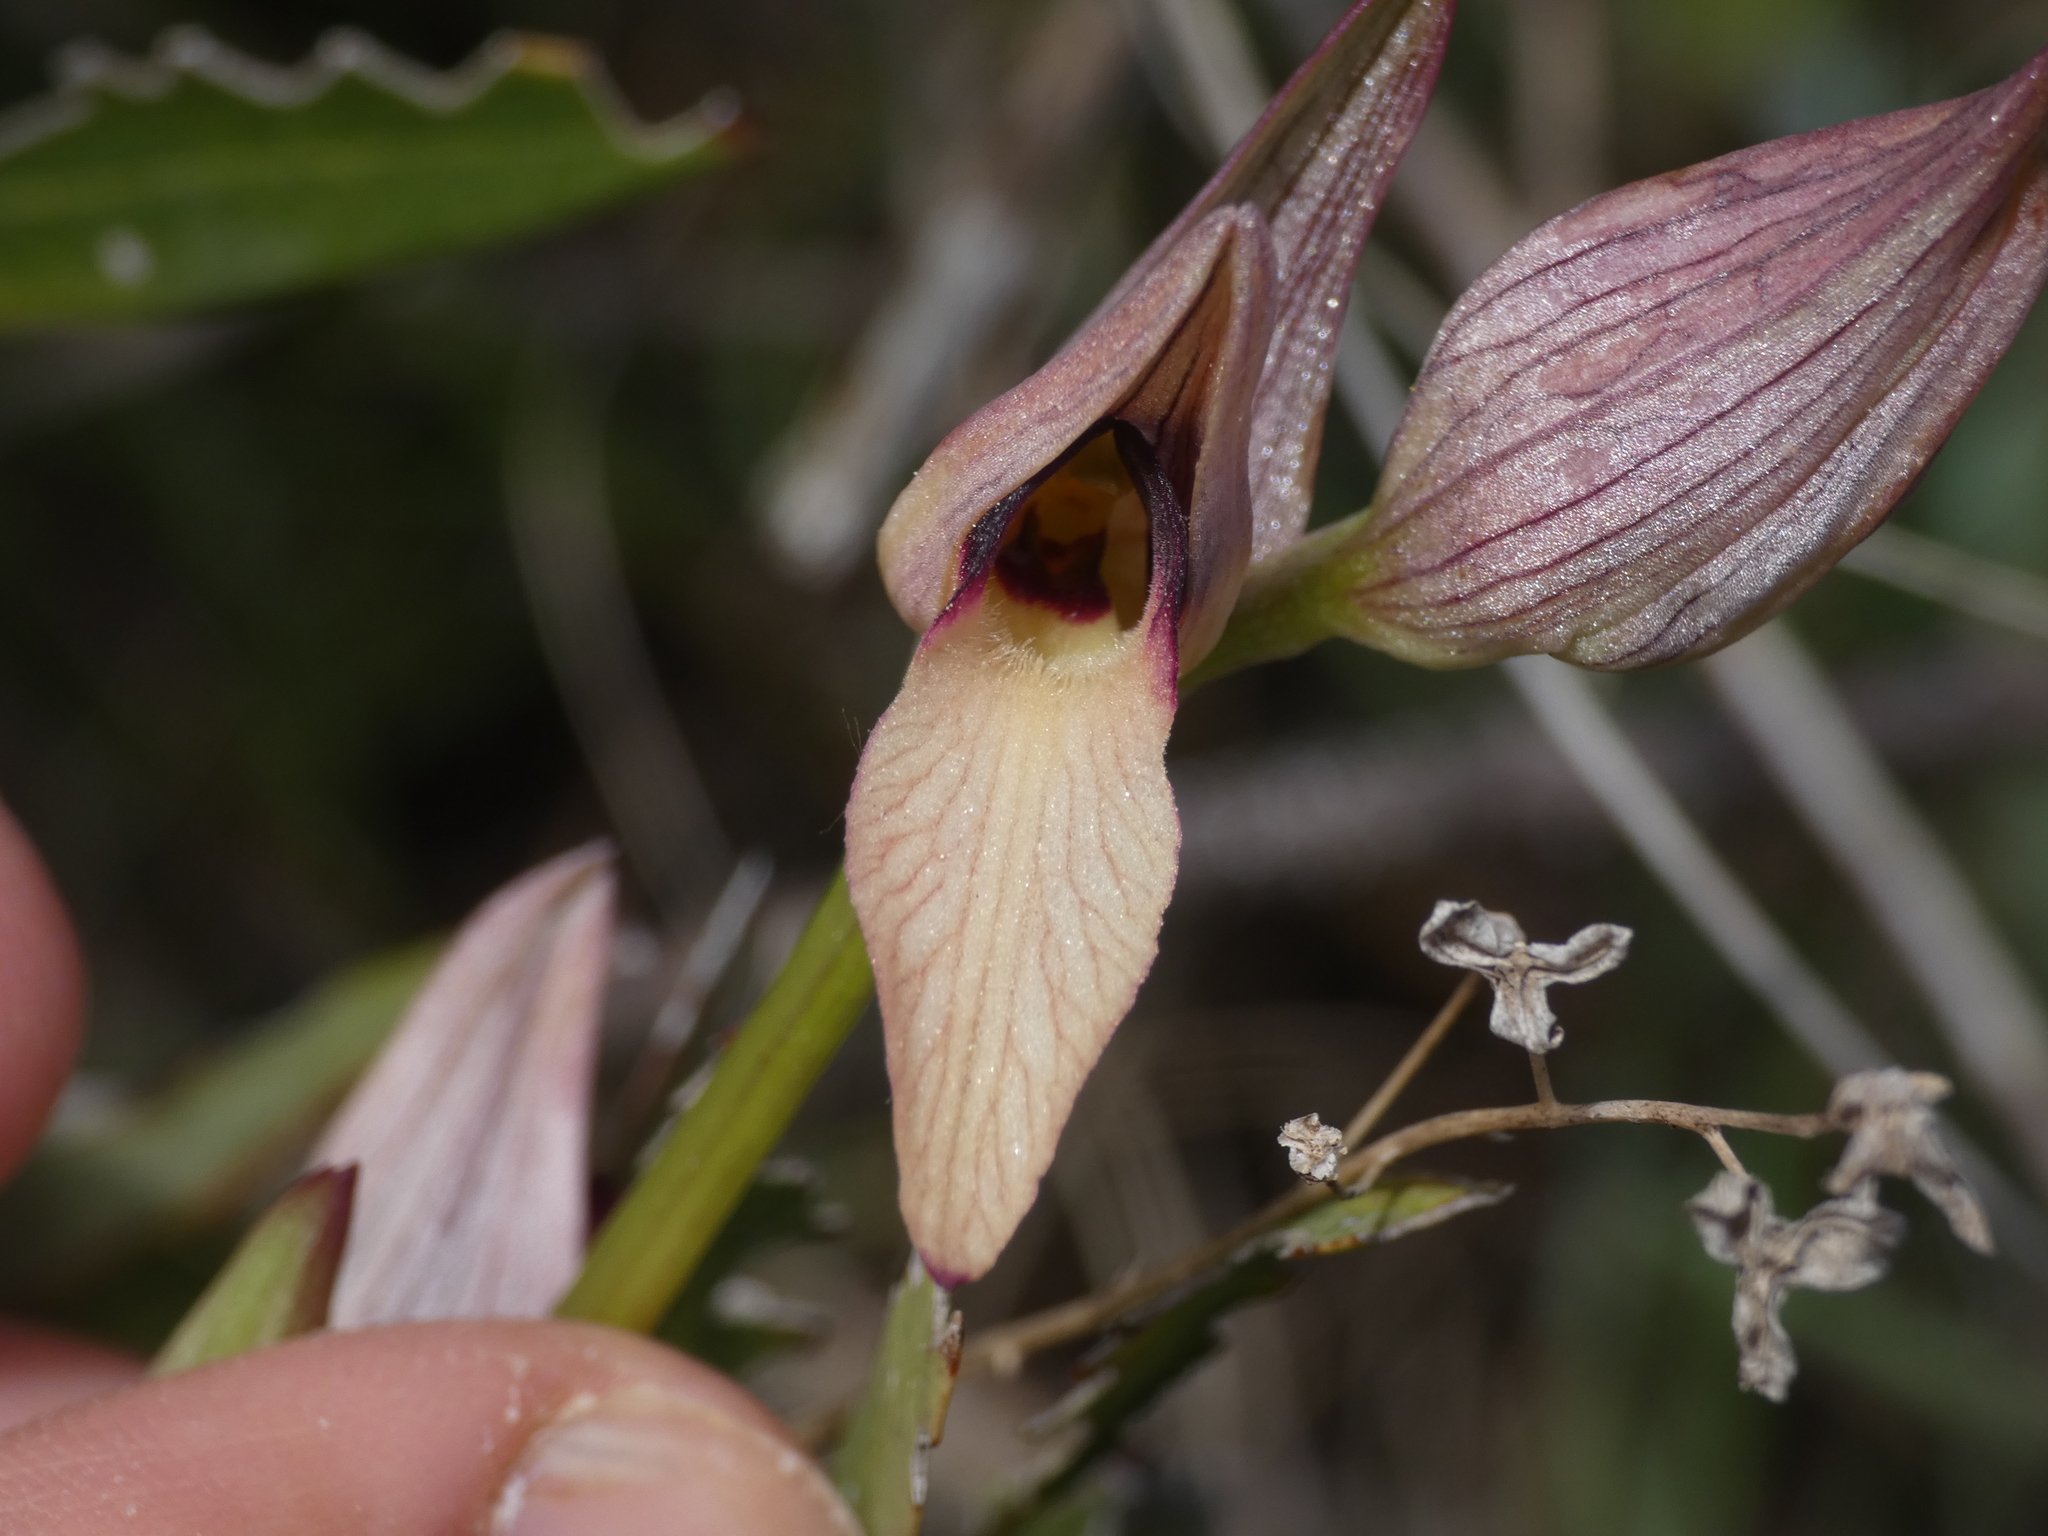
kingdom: Plantae
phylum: Tracheophyta
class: Liliopsida
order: Asparagales
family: Orchidaceae
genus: Serapias
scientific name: Serapias lingua
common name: Tongue-orchid
